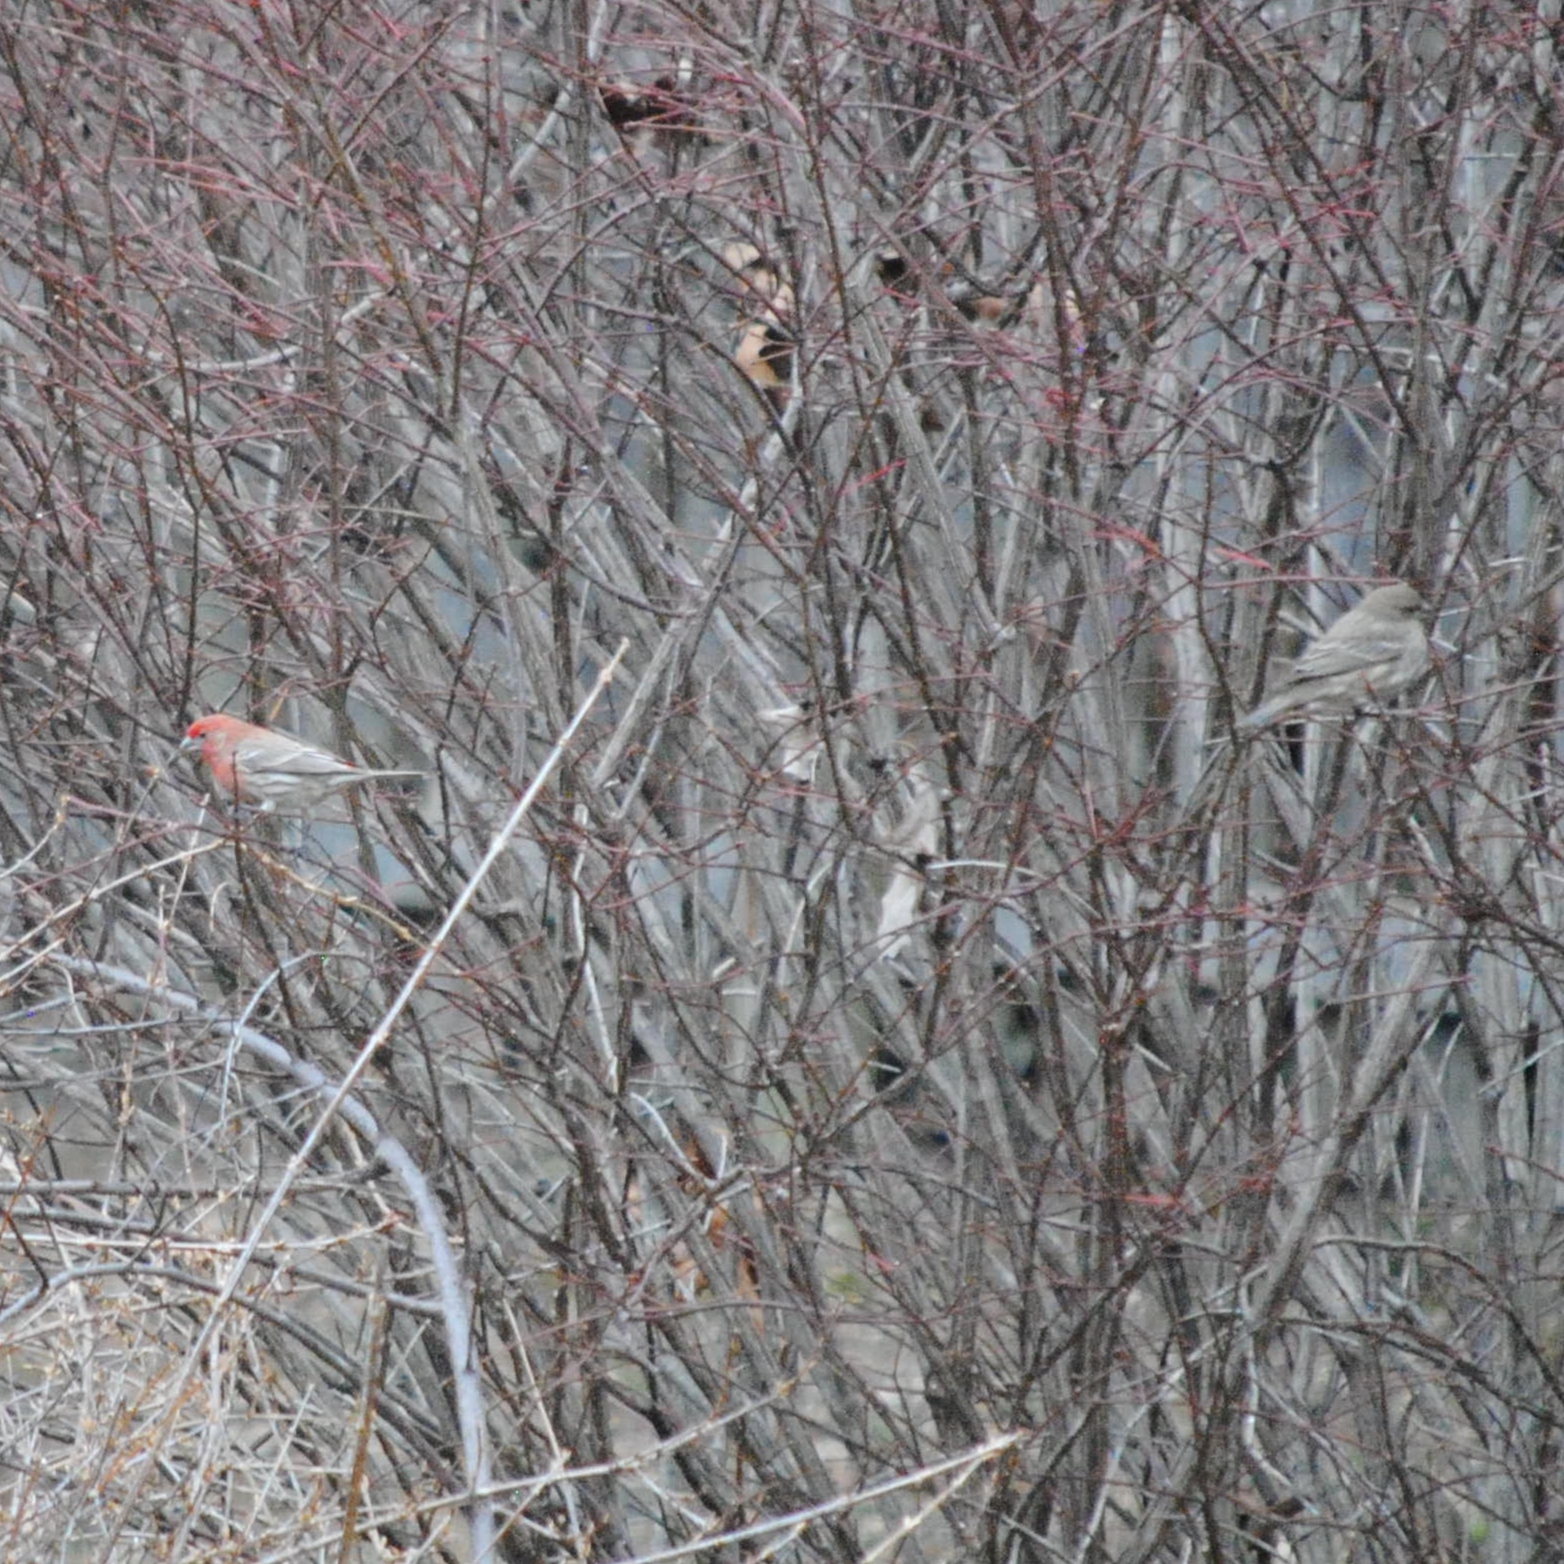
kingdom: Animalia
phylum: Chordata
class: Aves
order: Passeriformes
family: Fringillidae
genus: Haemorhous
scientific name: Haemorhous mexicanus
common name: House finch
